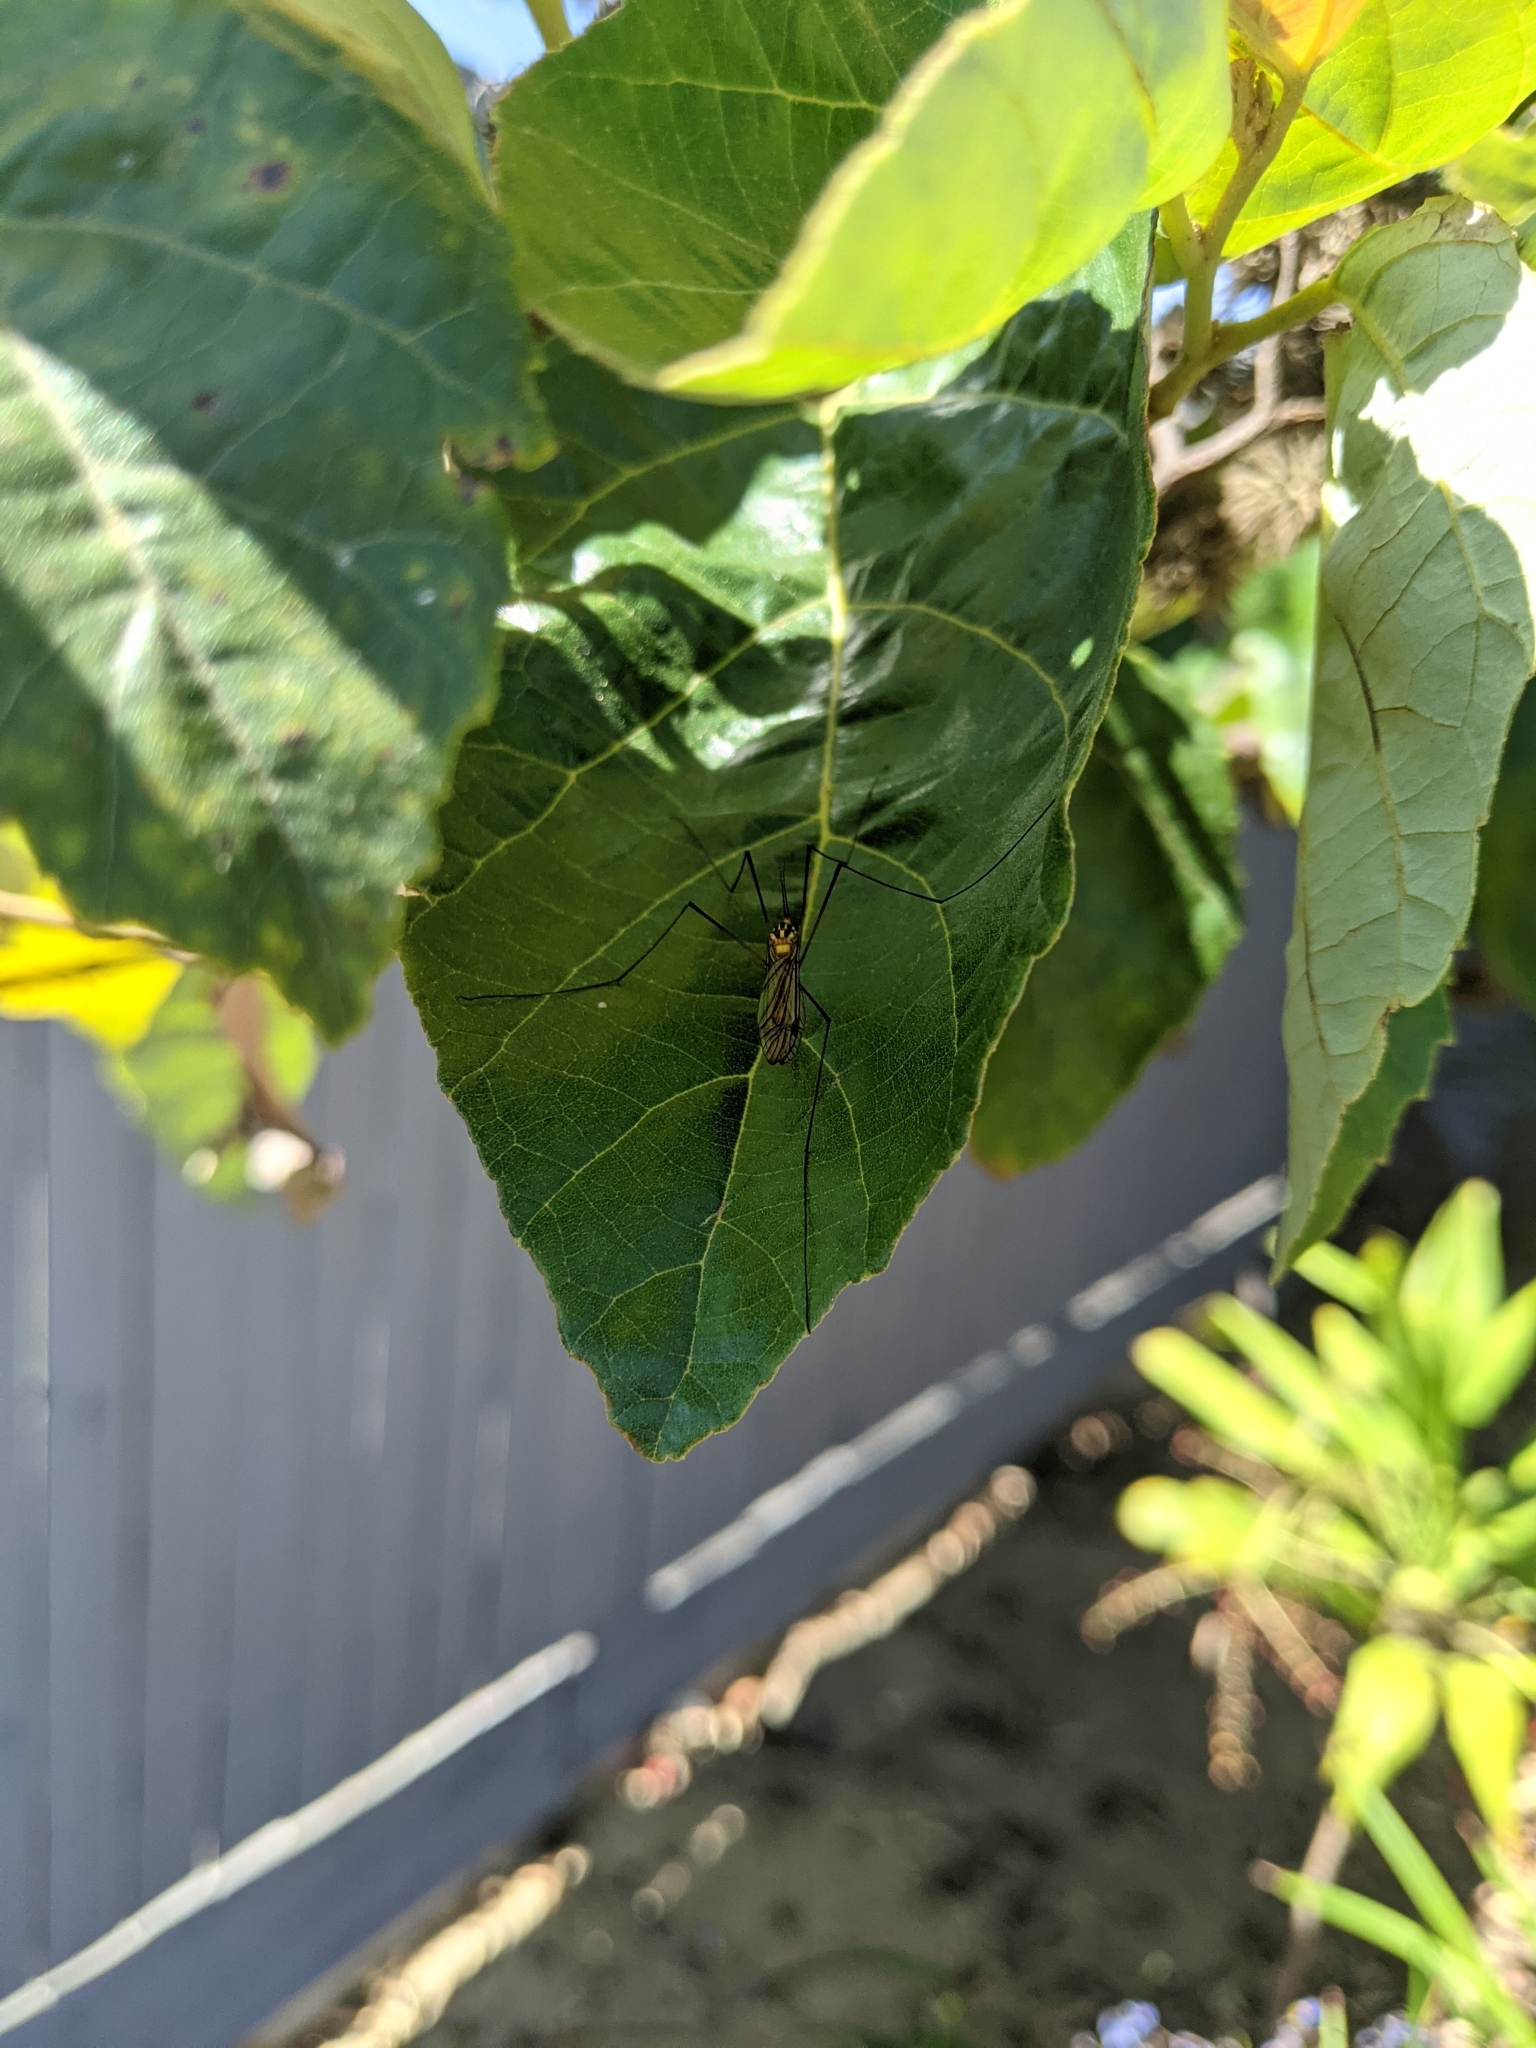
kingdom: Animalia
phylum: Arthropoda
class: Insecta
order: Diptera
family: Tipulidae
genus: Nephrotoma
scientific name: Nephrotoma australasiae
